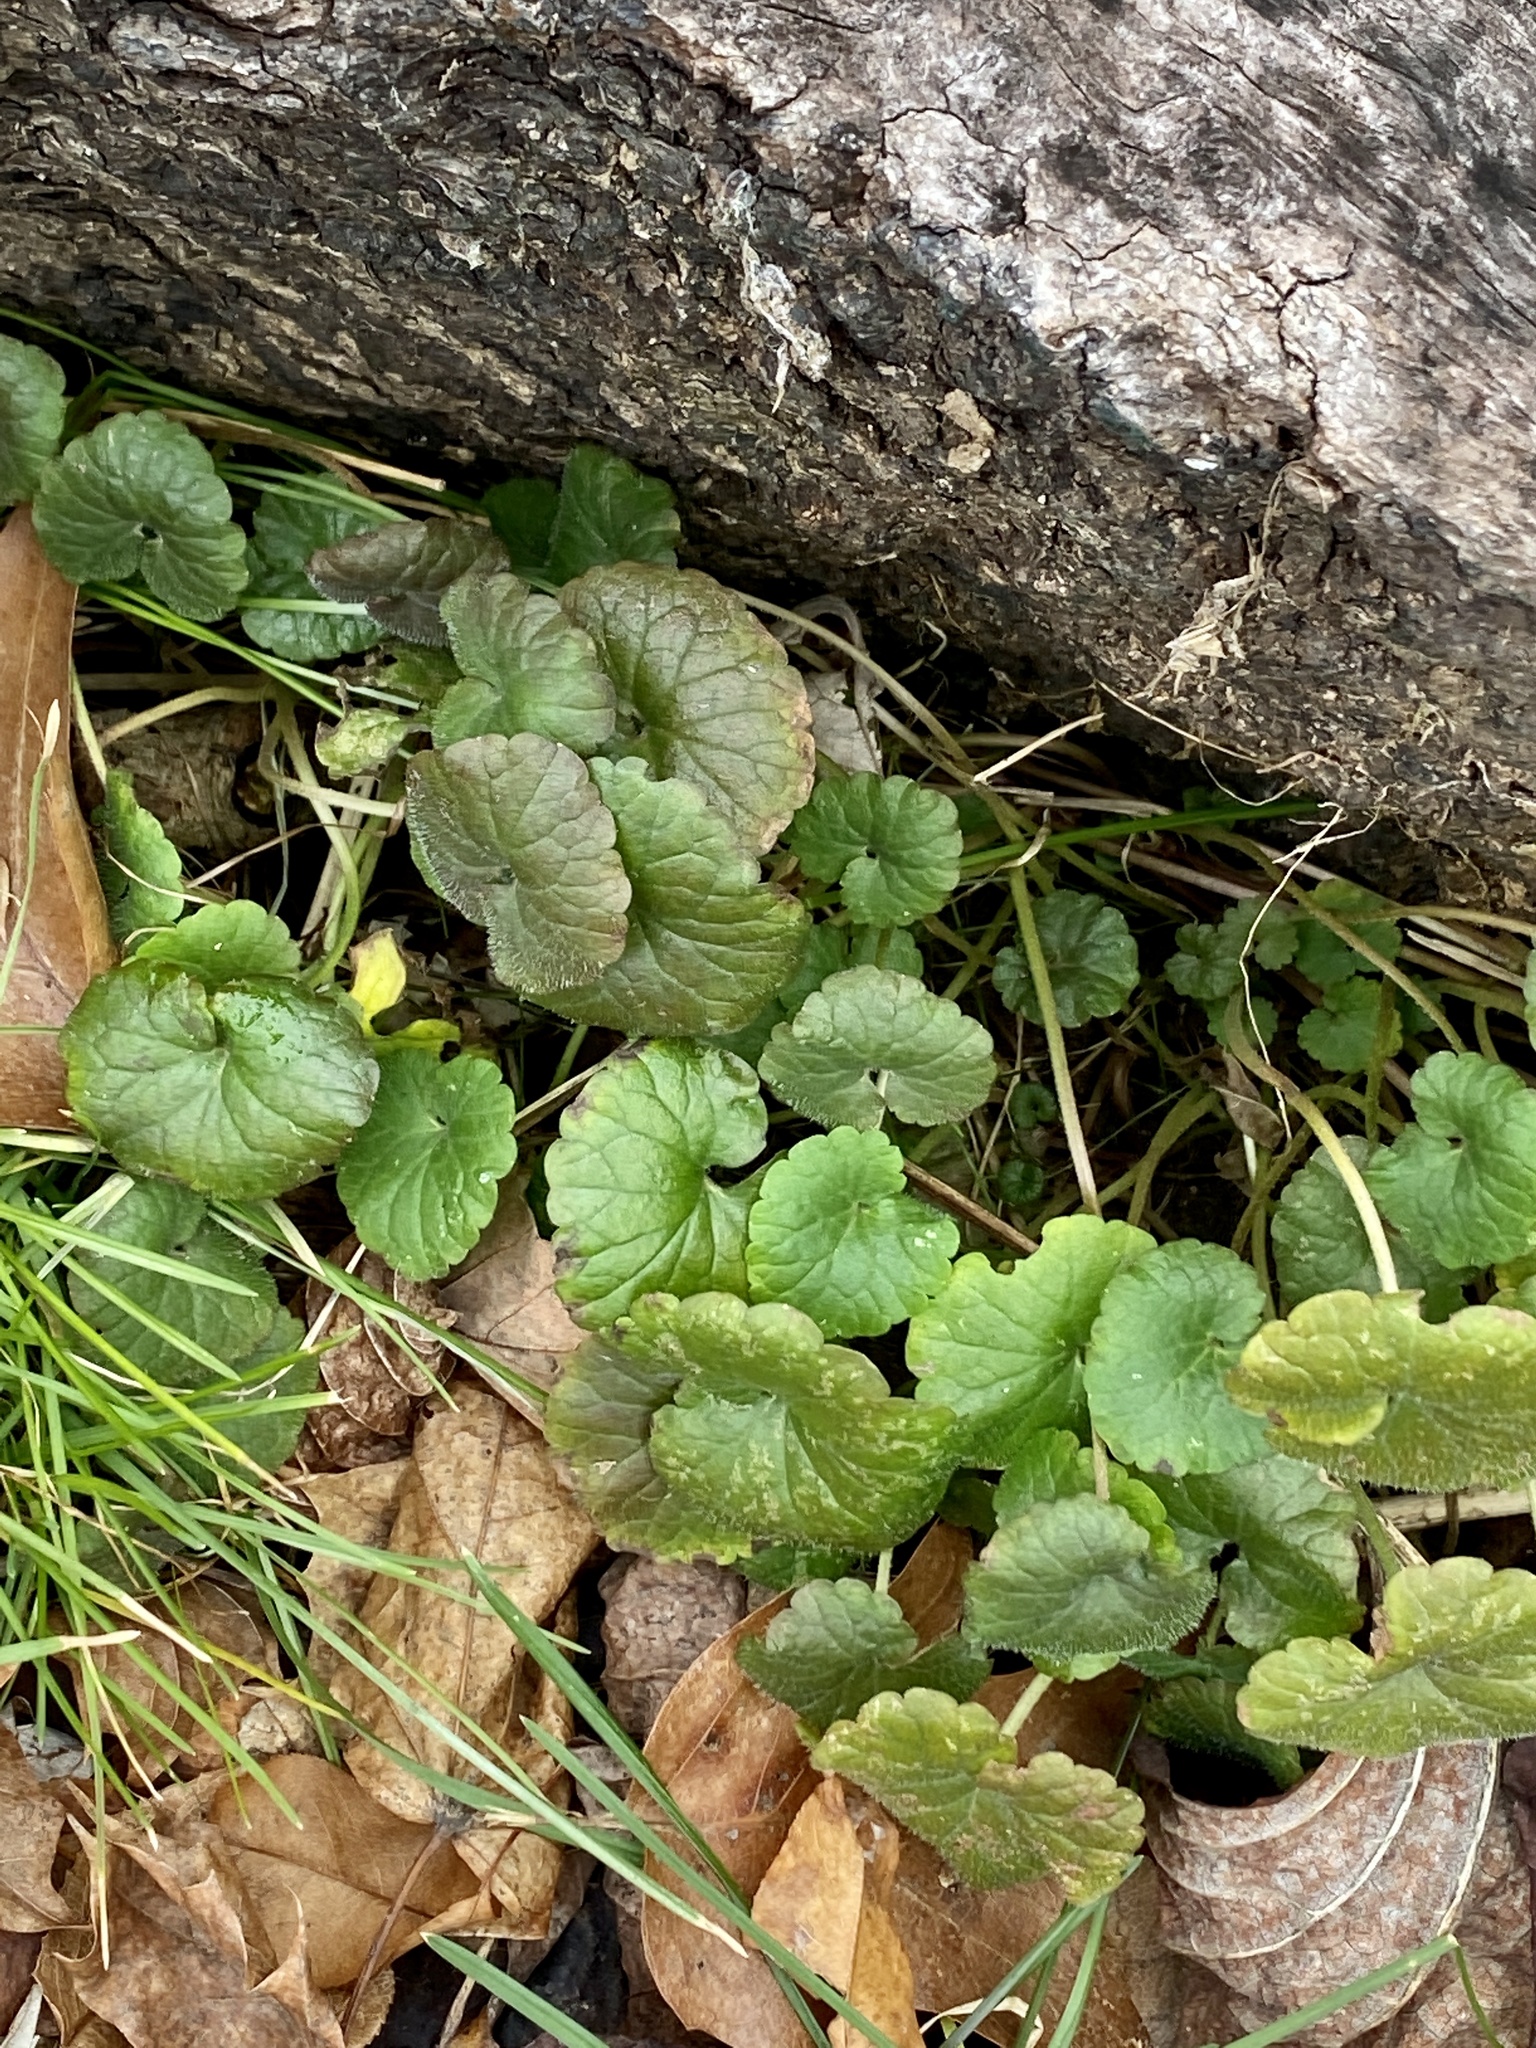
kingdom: Plantae
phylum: Tracheophyta
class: Magnoliopsida
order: Lamiales
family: Lamiaceae
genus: Glechoma
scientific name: Glechoma hederacea
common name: Ground ivy
